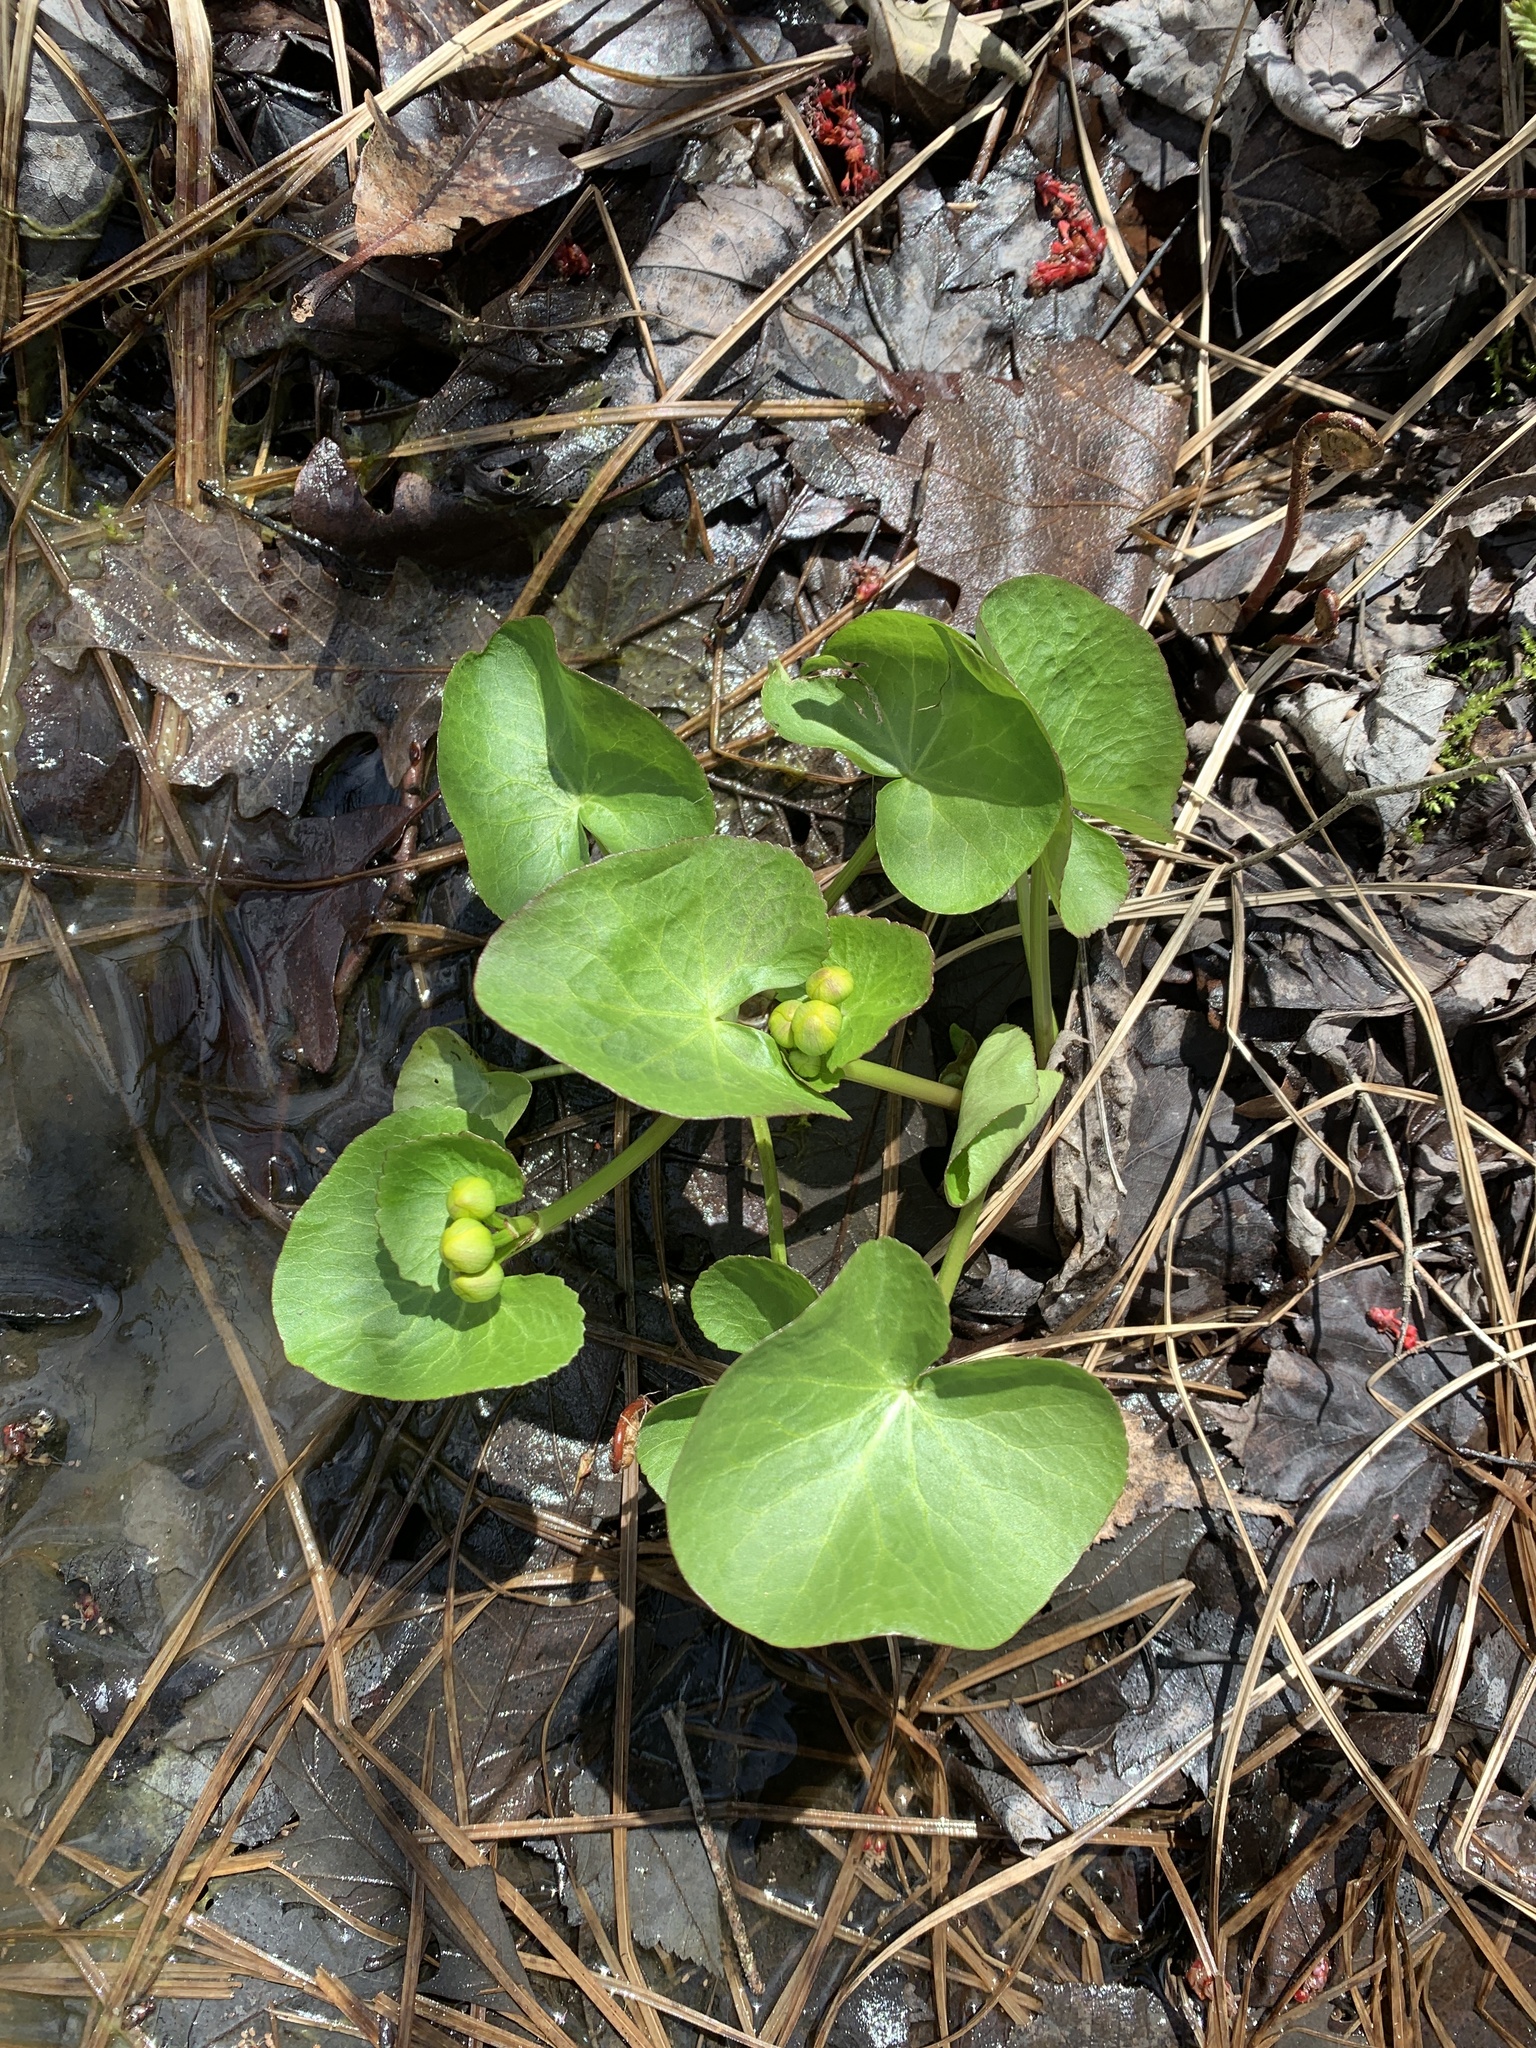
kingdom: Plantae
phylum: Tracheophyta
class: Magnoliopsida
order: Ranunculales
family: Ranunculaceae
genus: Caltha
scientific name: Caltha palustris
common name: Marsh marigold
